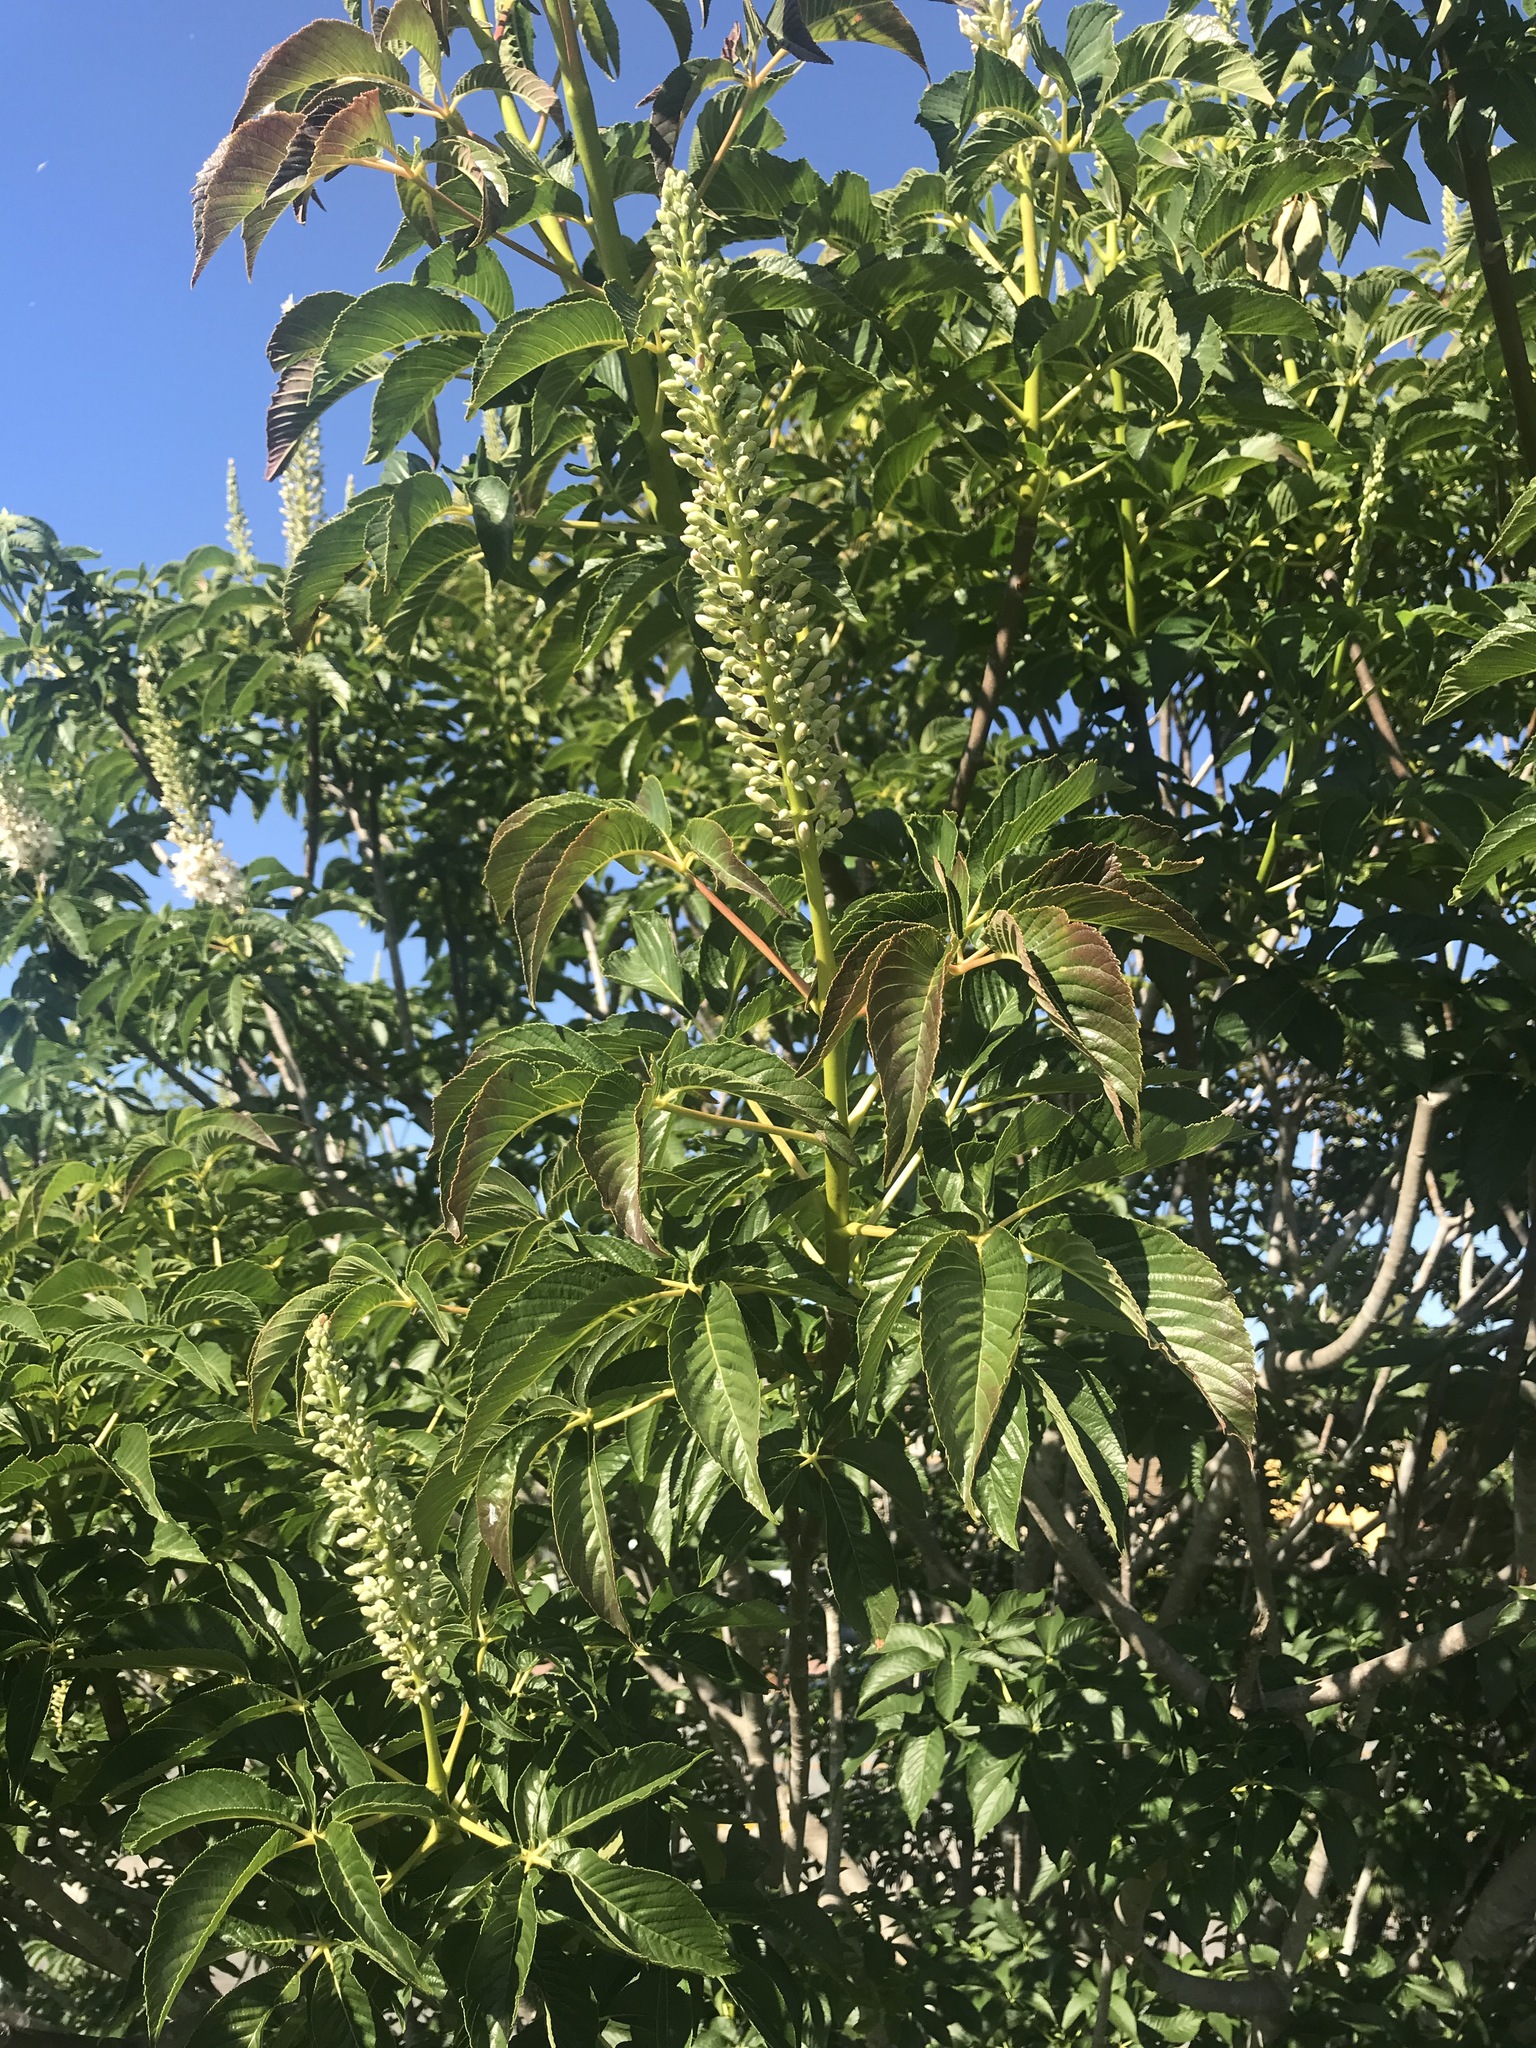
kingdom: Plantae
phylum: Tracheophyta
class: Magnoliopsida
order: Sapindales
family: Sapindaceae
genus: Aesculus
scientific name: Aesculus californica
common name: California buckeye
